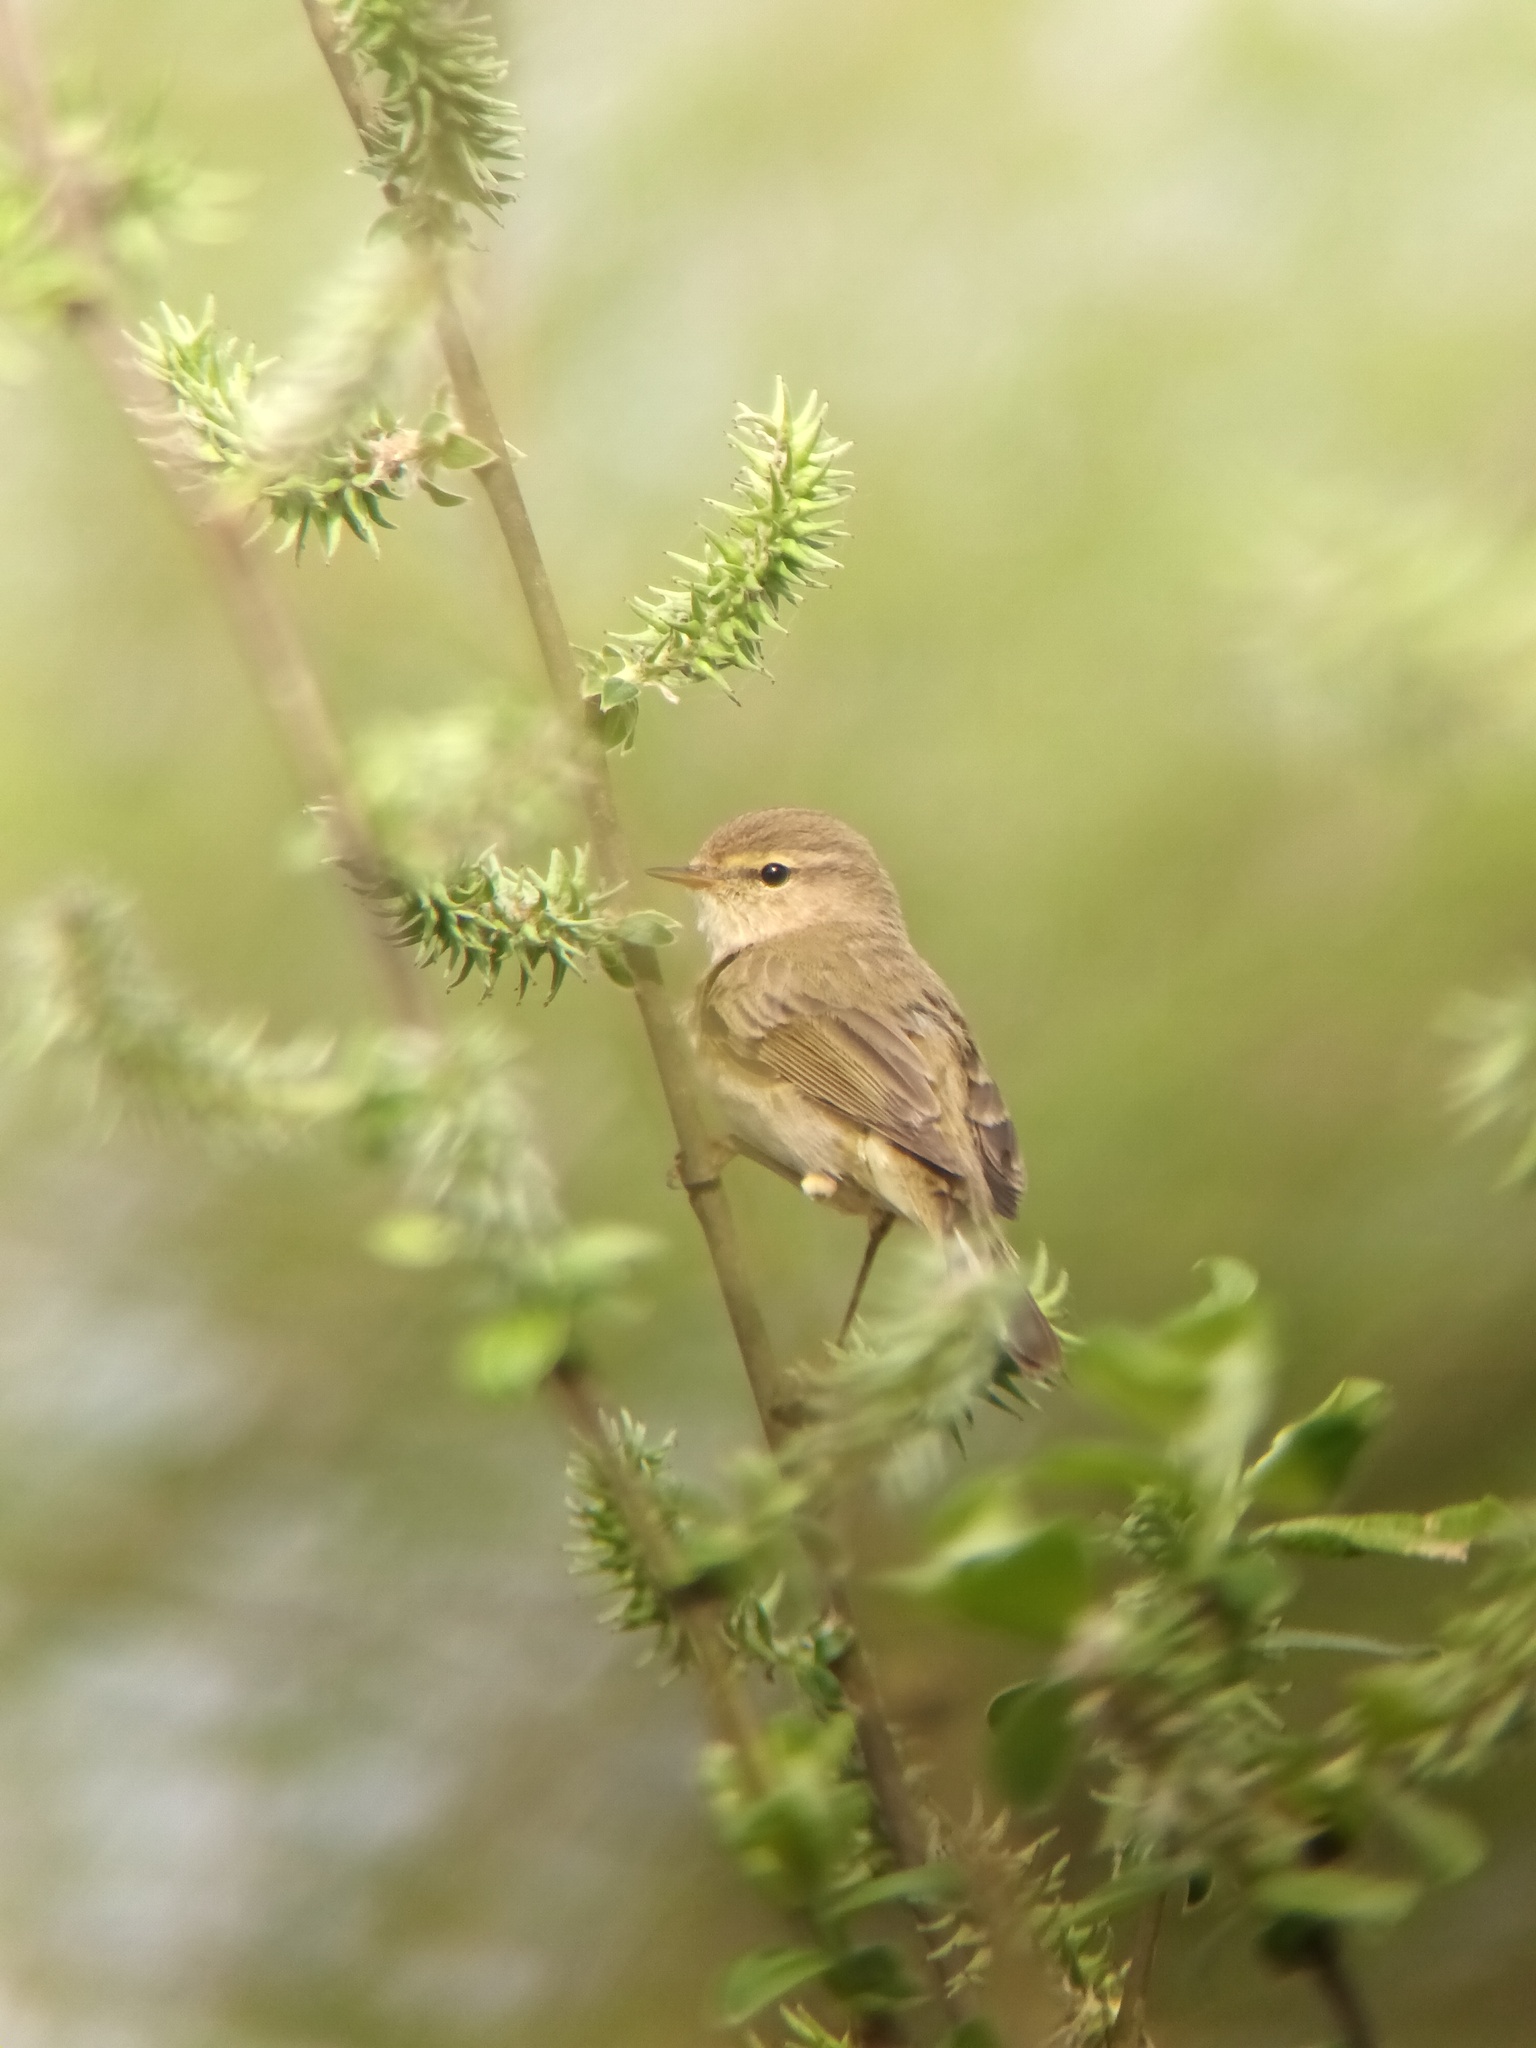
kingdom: Animalia
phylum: Chordata
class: Aves
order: Passeriformes
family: Phylloscopidae
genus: Phylloscopus
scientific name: Phylloscopus collybita
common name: Common chiffchaff
